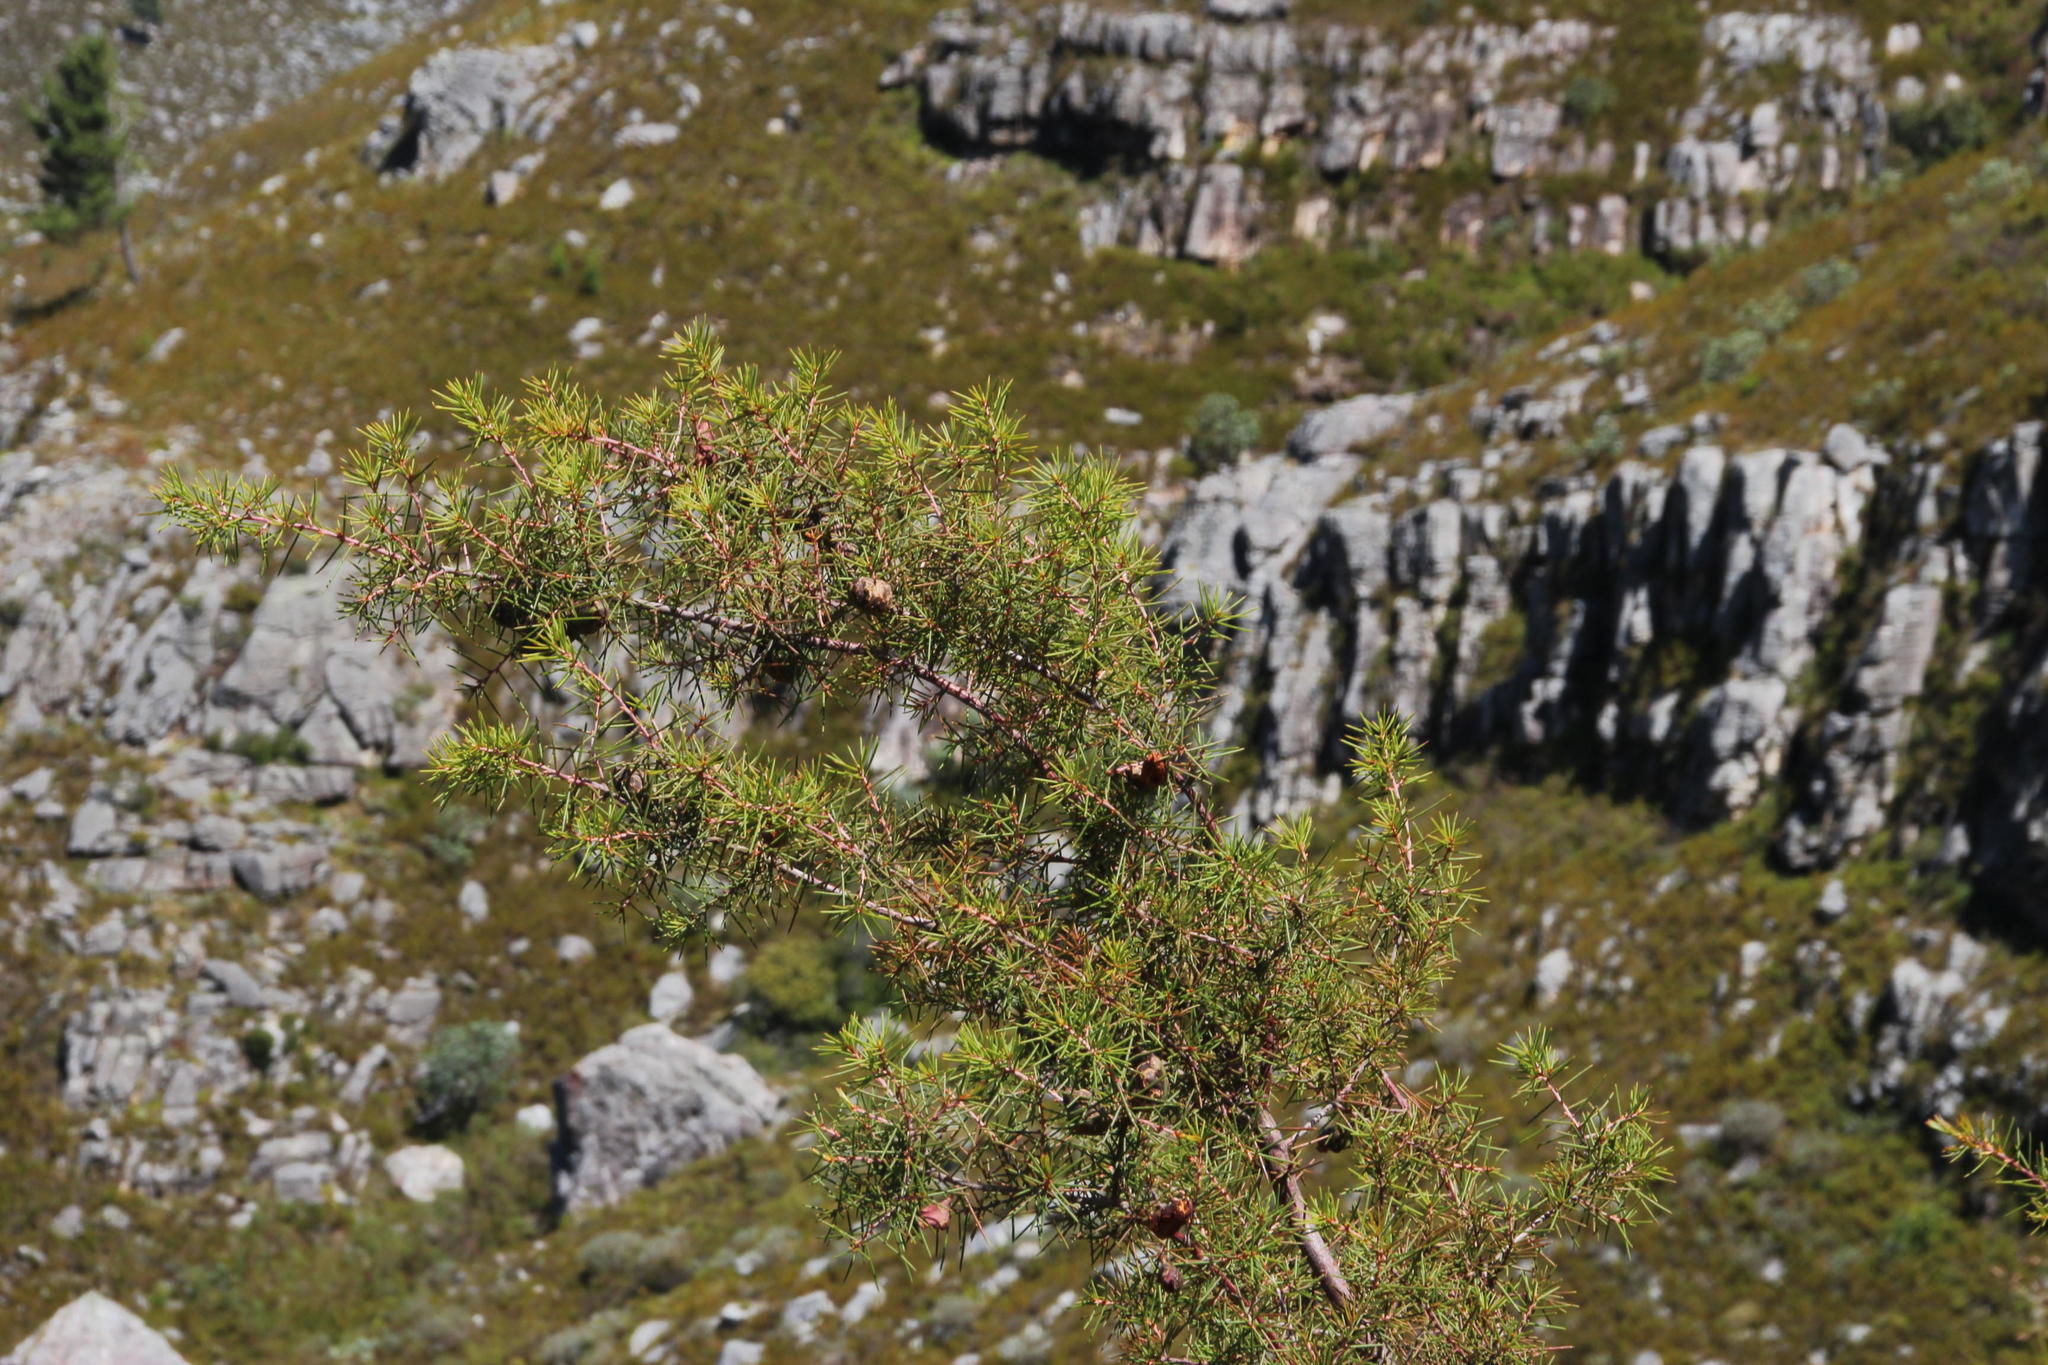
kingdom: Plantae
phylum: Tracheophyta
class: Magnoliopsida
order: Proteales
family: Proteaceae
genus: Hakea
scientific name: Hakea sericea
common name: Needle bush
